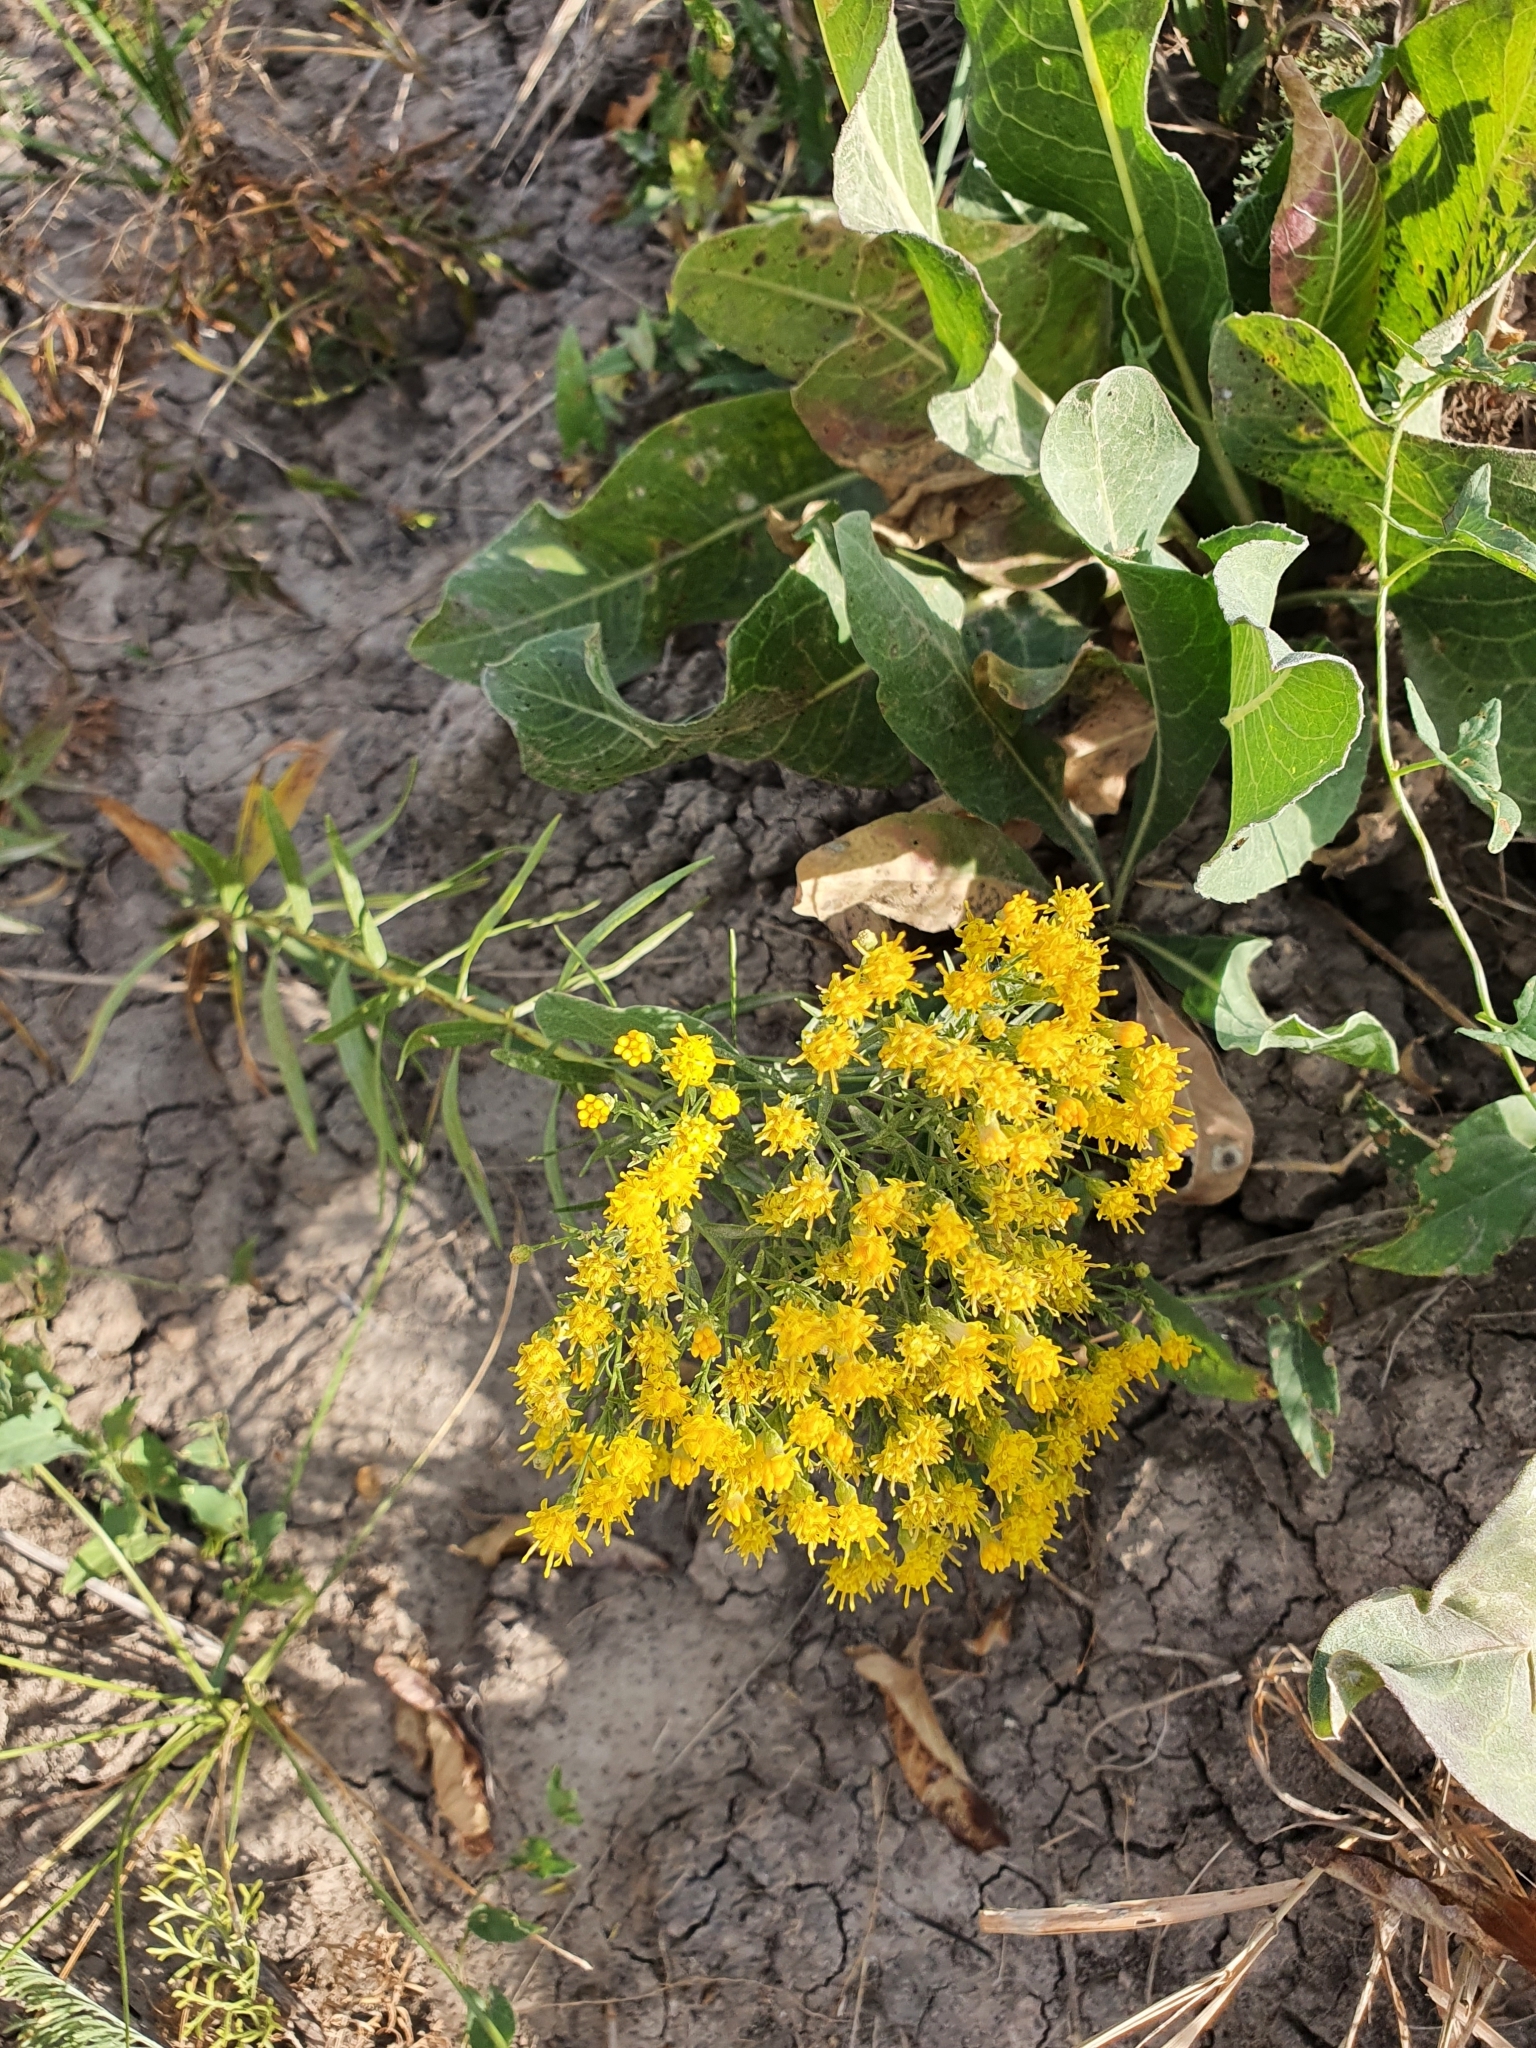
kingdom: Plantae
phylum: Tracheophyta
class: Magnoliopsida
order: Asterales
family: Asteraceae
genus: Galatella
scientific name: Galatella biflora
